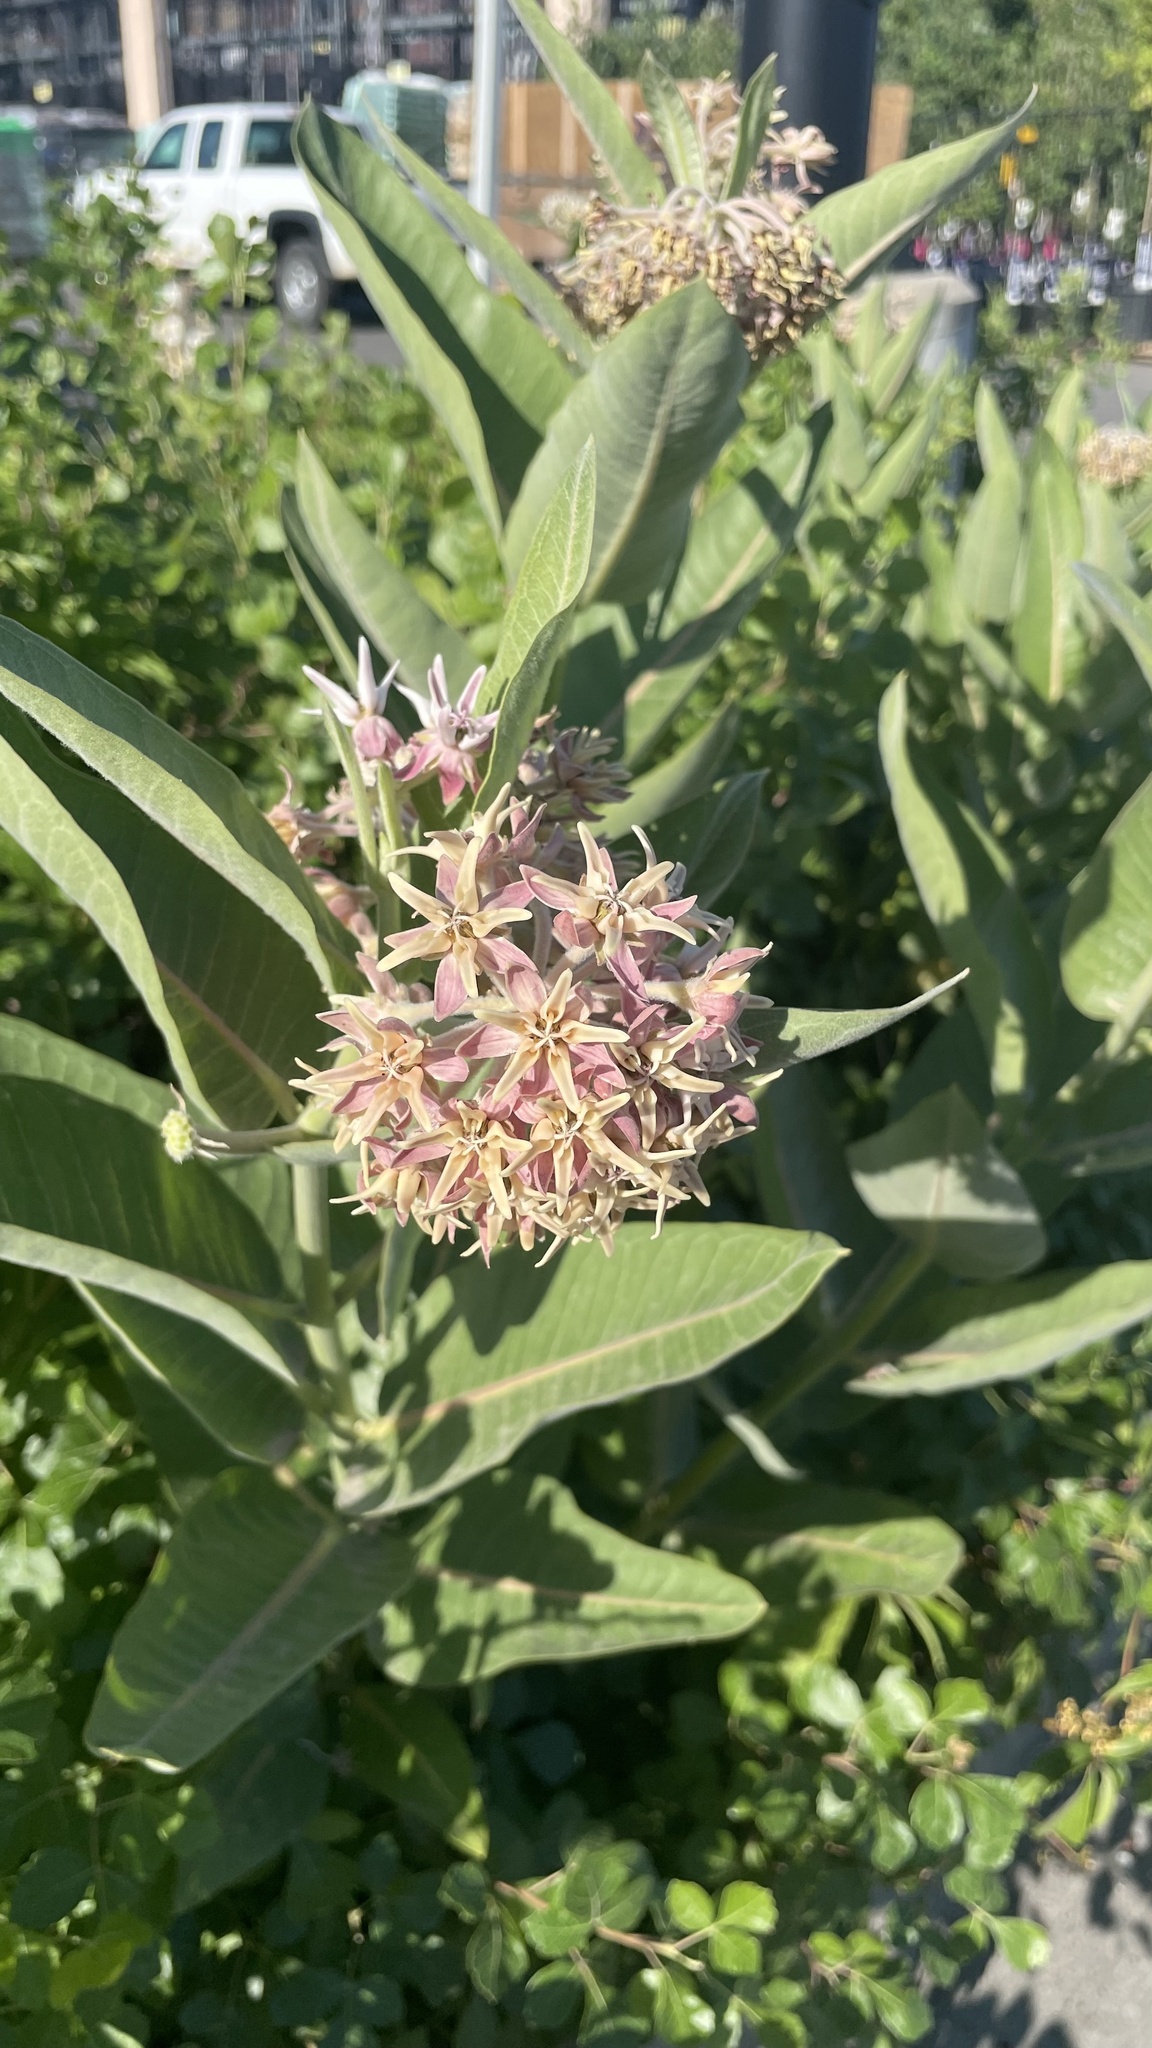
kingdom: Plantae
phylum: Tracheophyta
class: Magnoliopsida
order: Gentianales
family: Apocynaceae
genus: Asclepias
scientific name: Asclepias speciosa
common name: Showy milkweed
